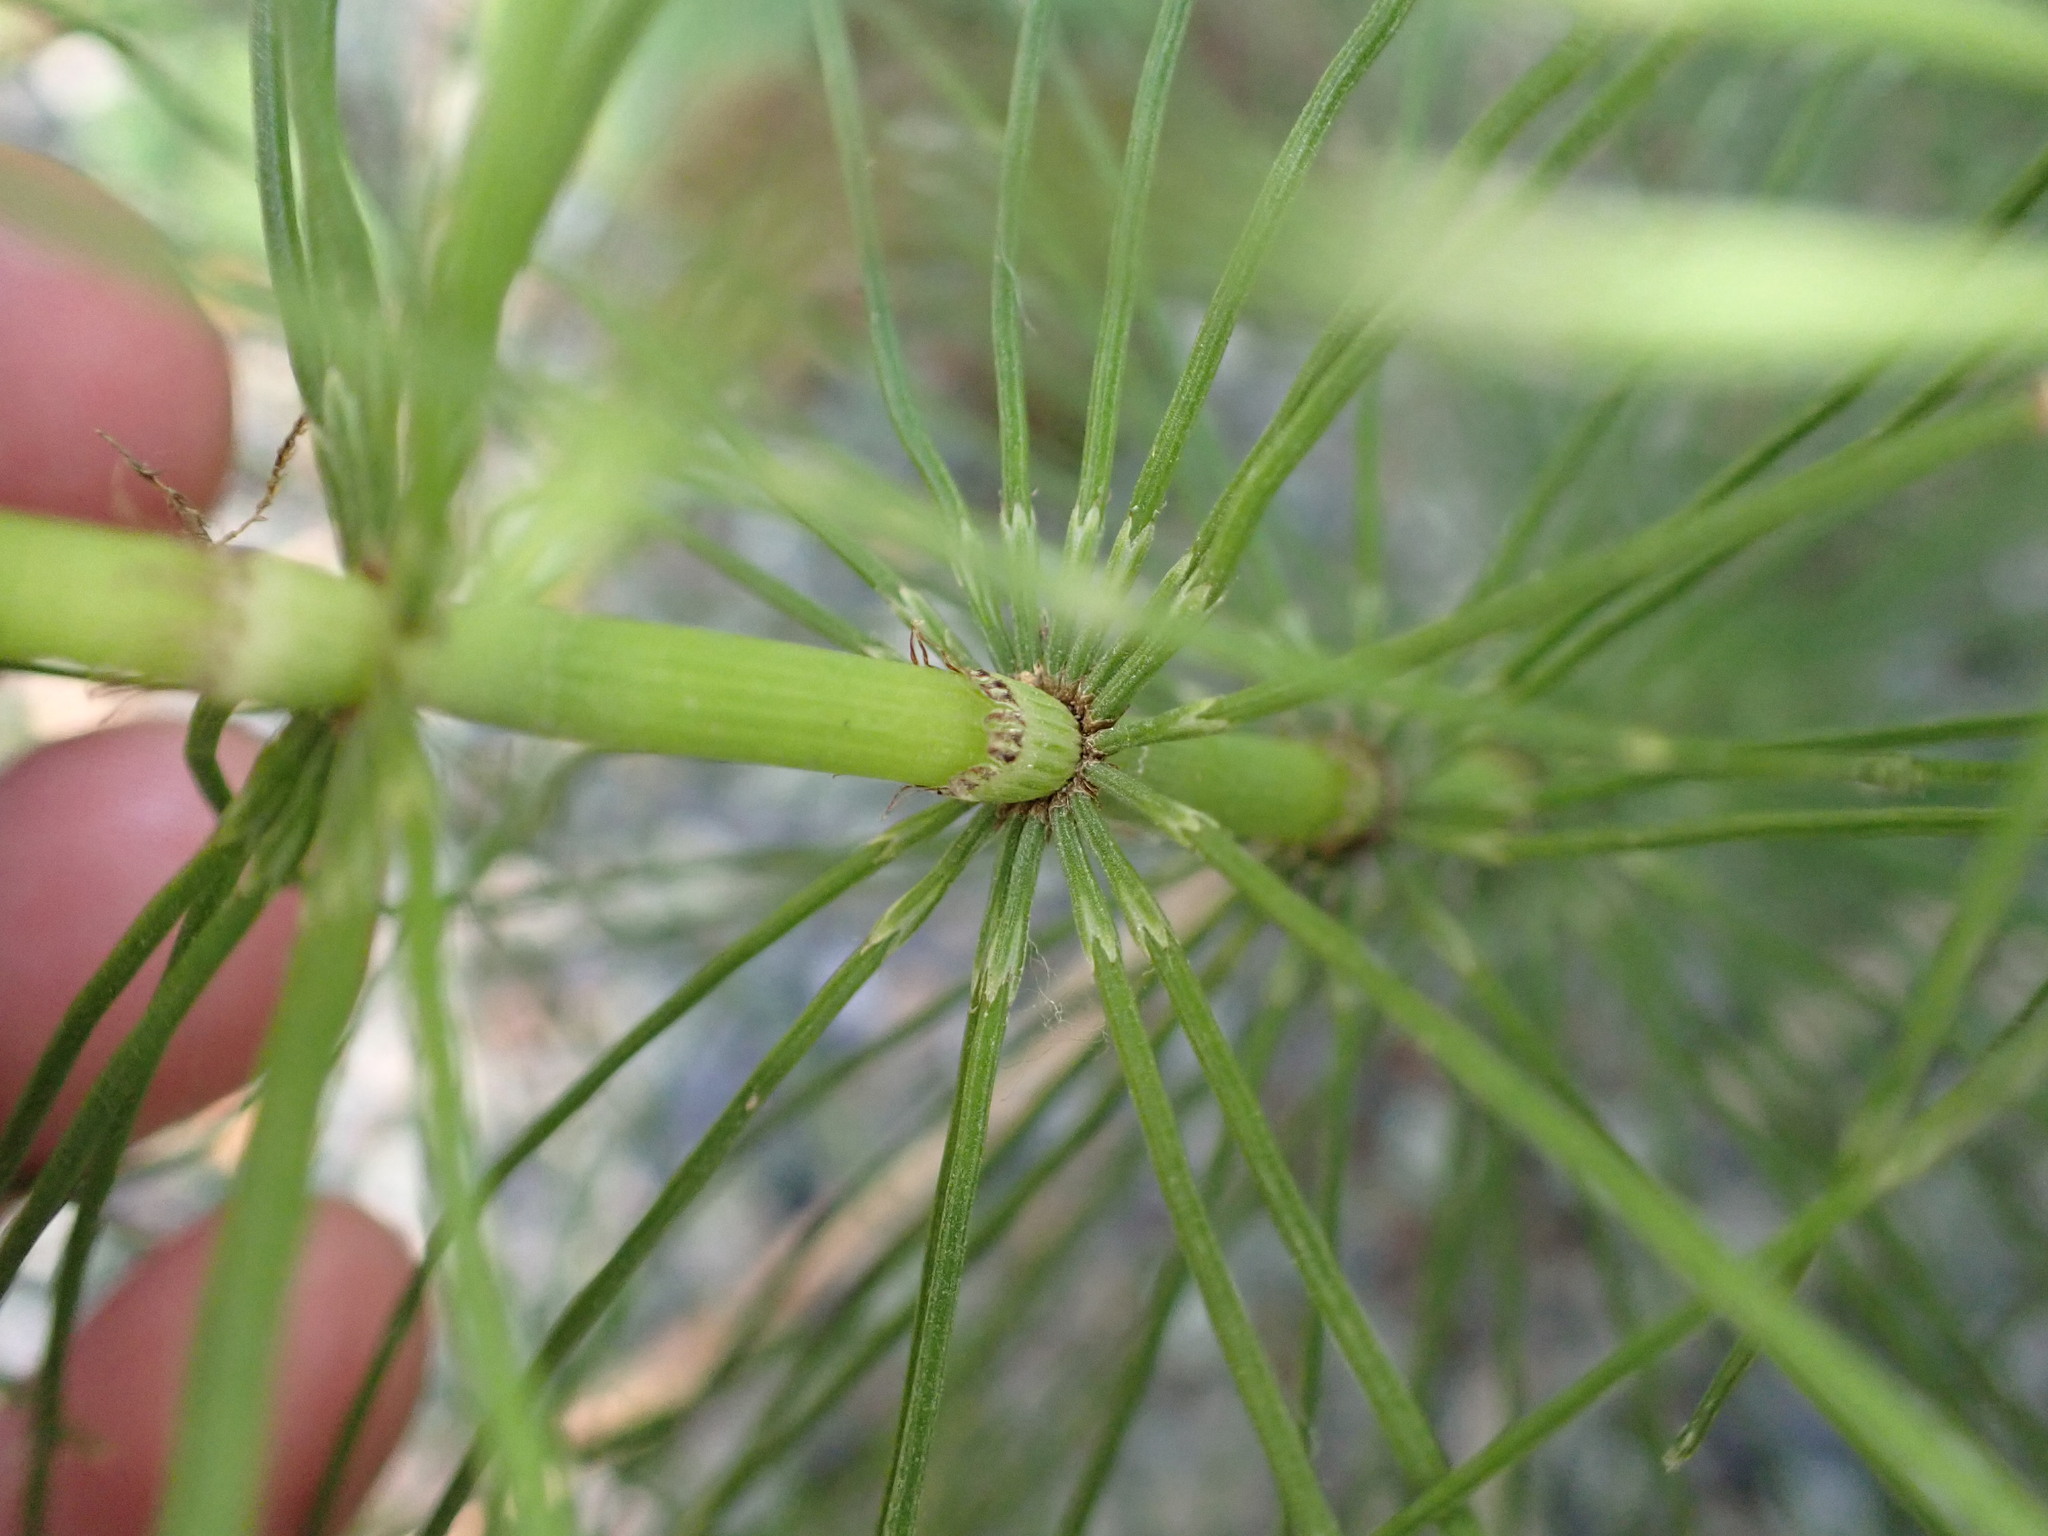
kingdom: Plantae
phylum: Tracheophyta
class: Polypodiopsida
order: Equisetales
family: Equisetaceae
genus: Equisetum
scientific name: Equisetum braunii
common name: Braun's horsetail
